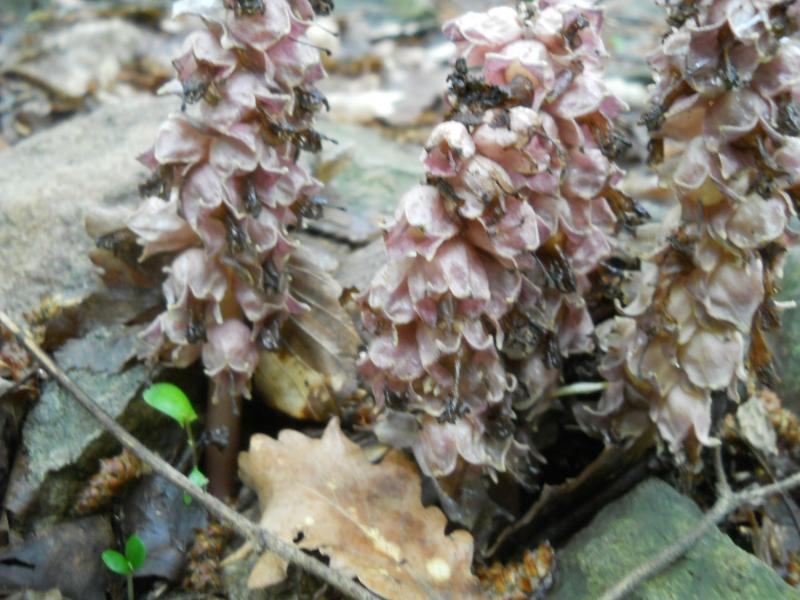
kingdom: Plantae
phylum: Tracheophyta
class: Magnoliopsida
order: Lamiales
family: Orobanchaceae
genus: Lathraea
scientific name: Lathraea squamaria
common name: Toothwort
